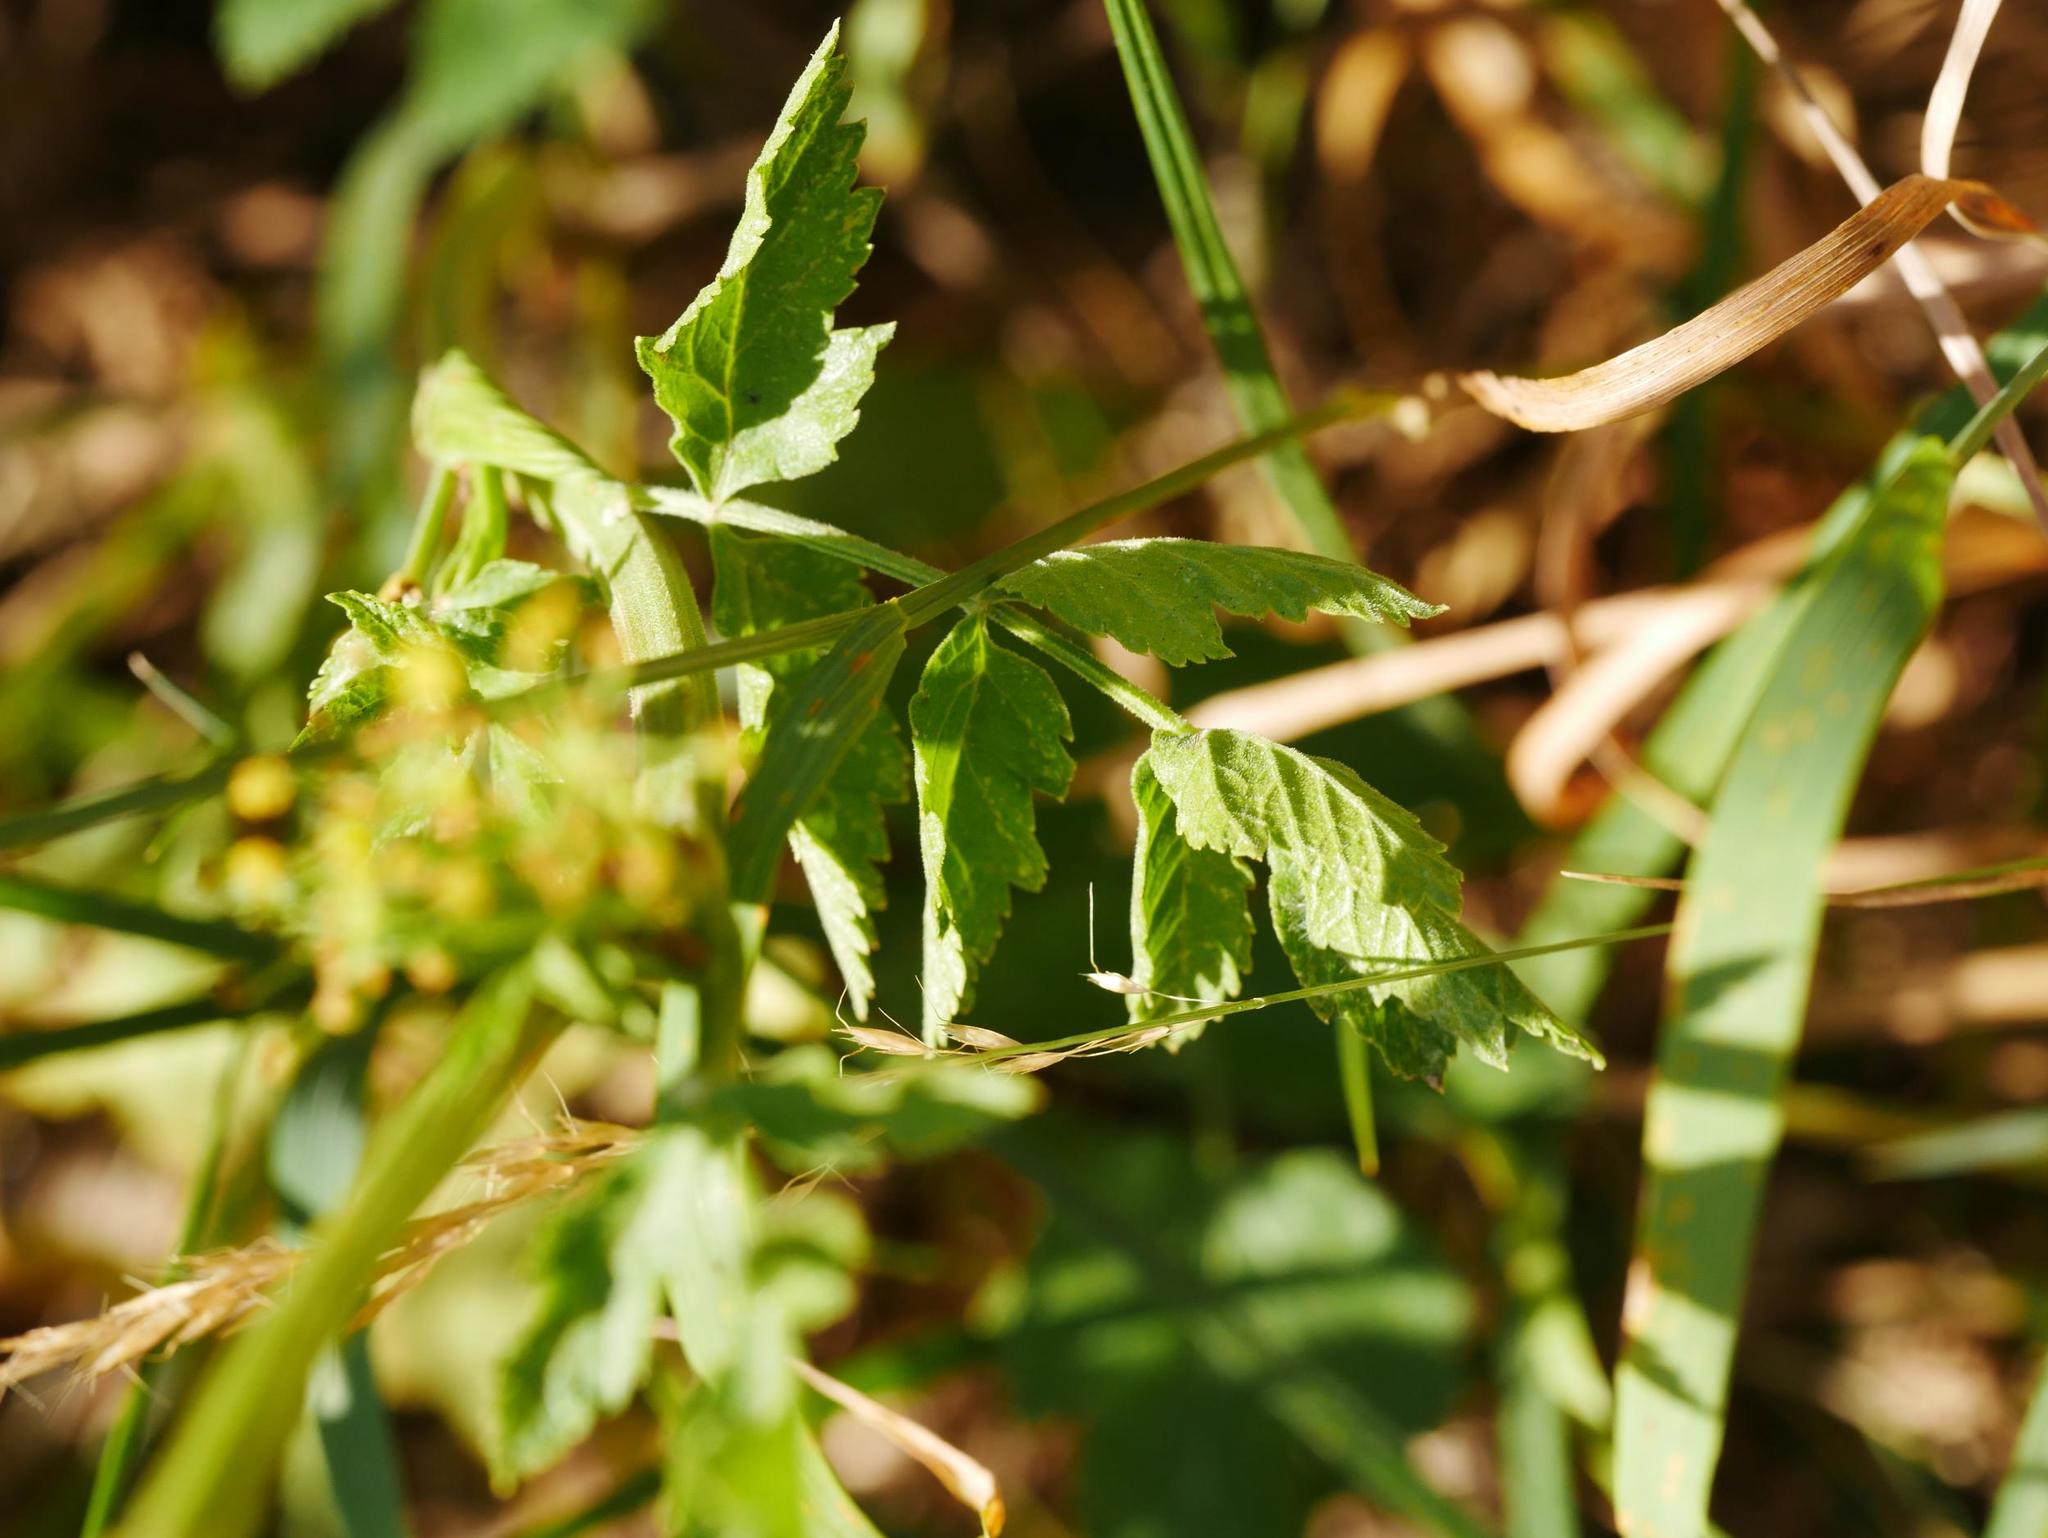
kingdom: Plantae
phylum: Tracheophyta
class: Magnoliopsida
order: Apiales
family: Apiaceae
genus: Pastinaca
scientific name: Pastinaca sativa
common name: Wild parsnip
